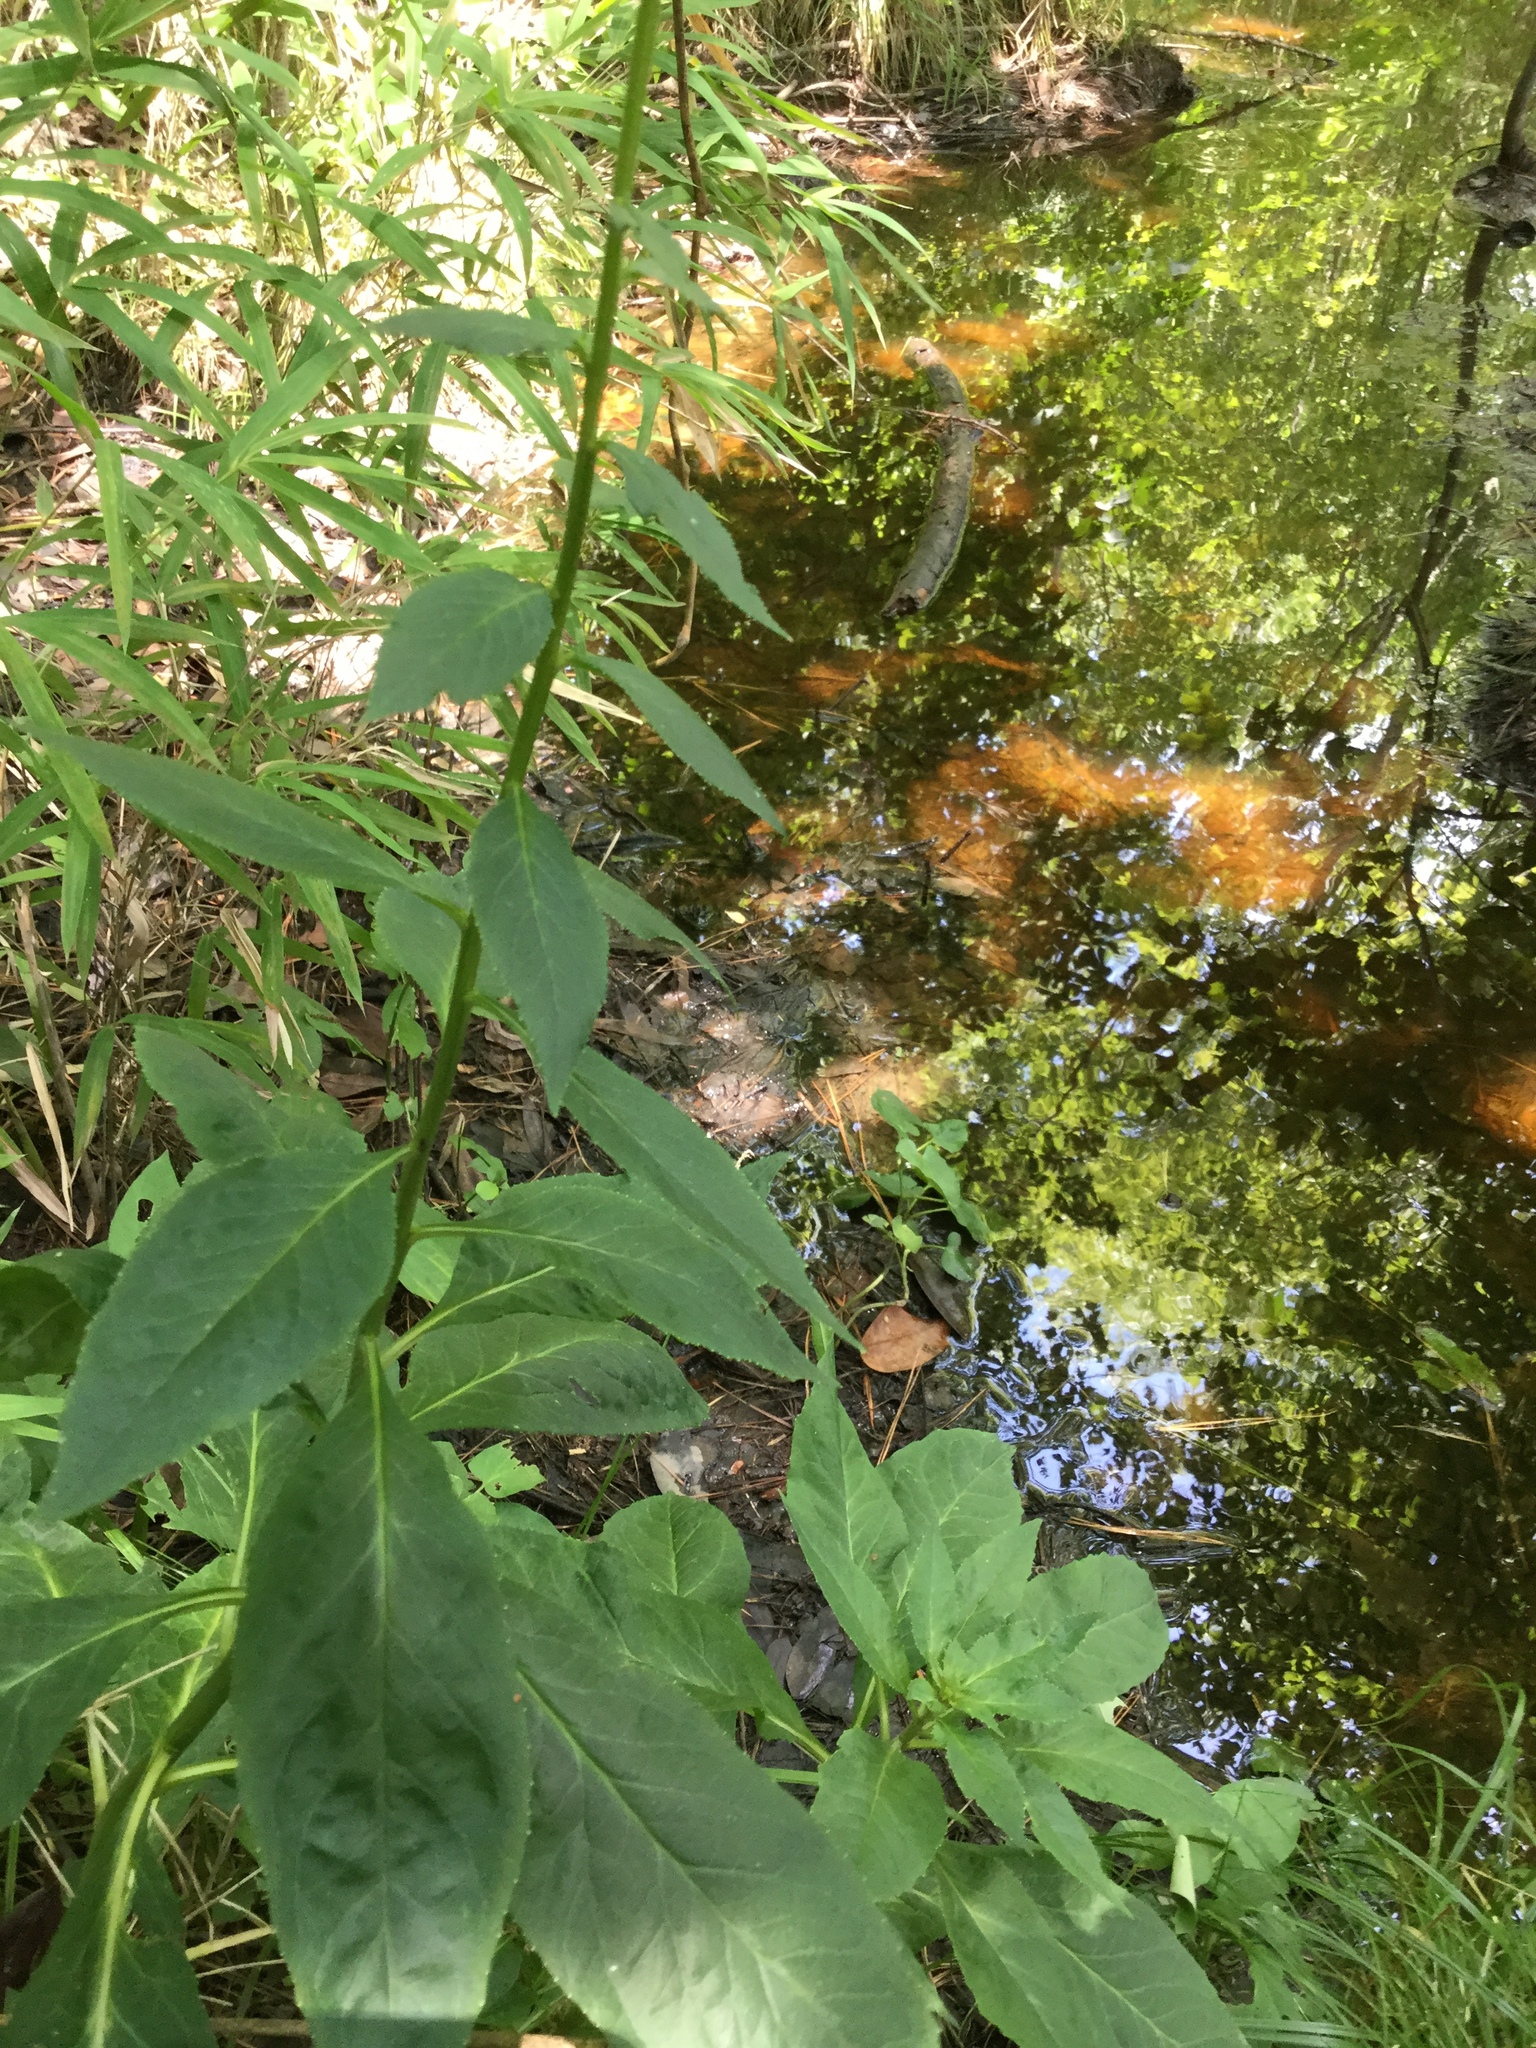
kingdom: Plantae
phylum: Tracheophyta
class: Magnoliopsida
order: Asterales
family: Campanulaceae
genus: Lobelia
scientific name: Lobelia cardinalis
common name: Cardinal flower
